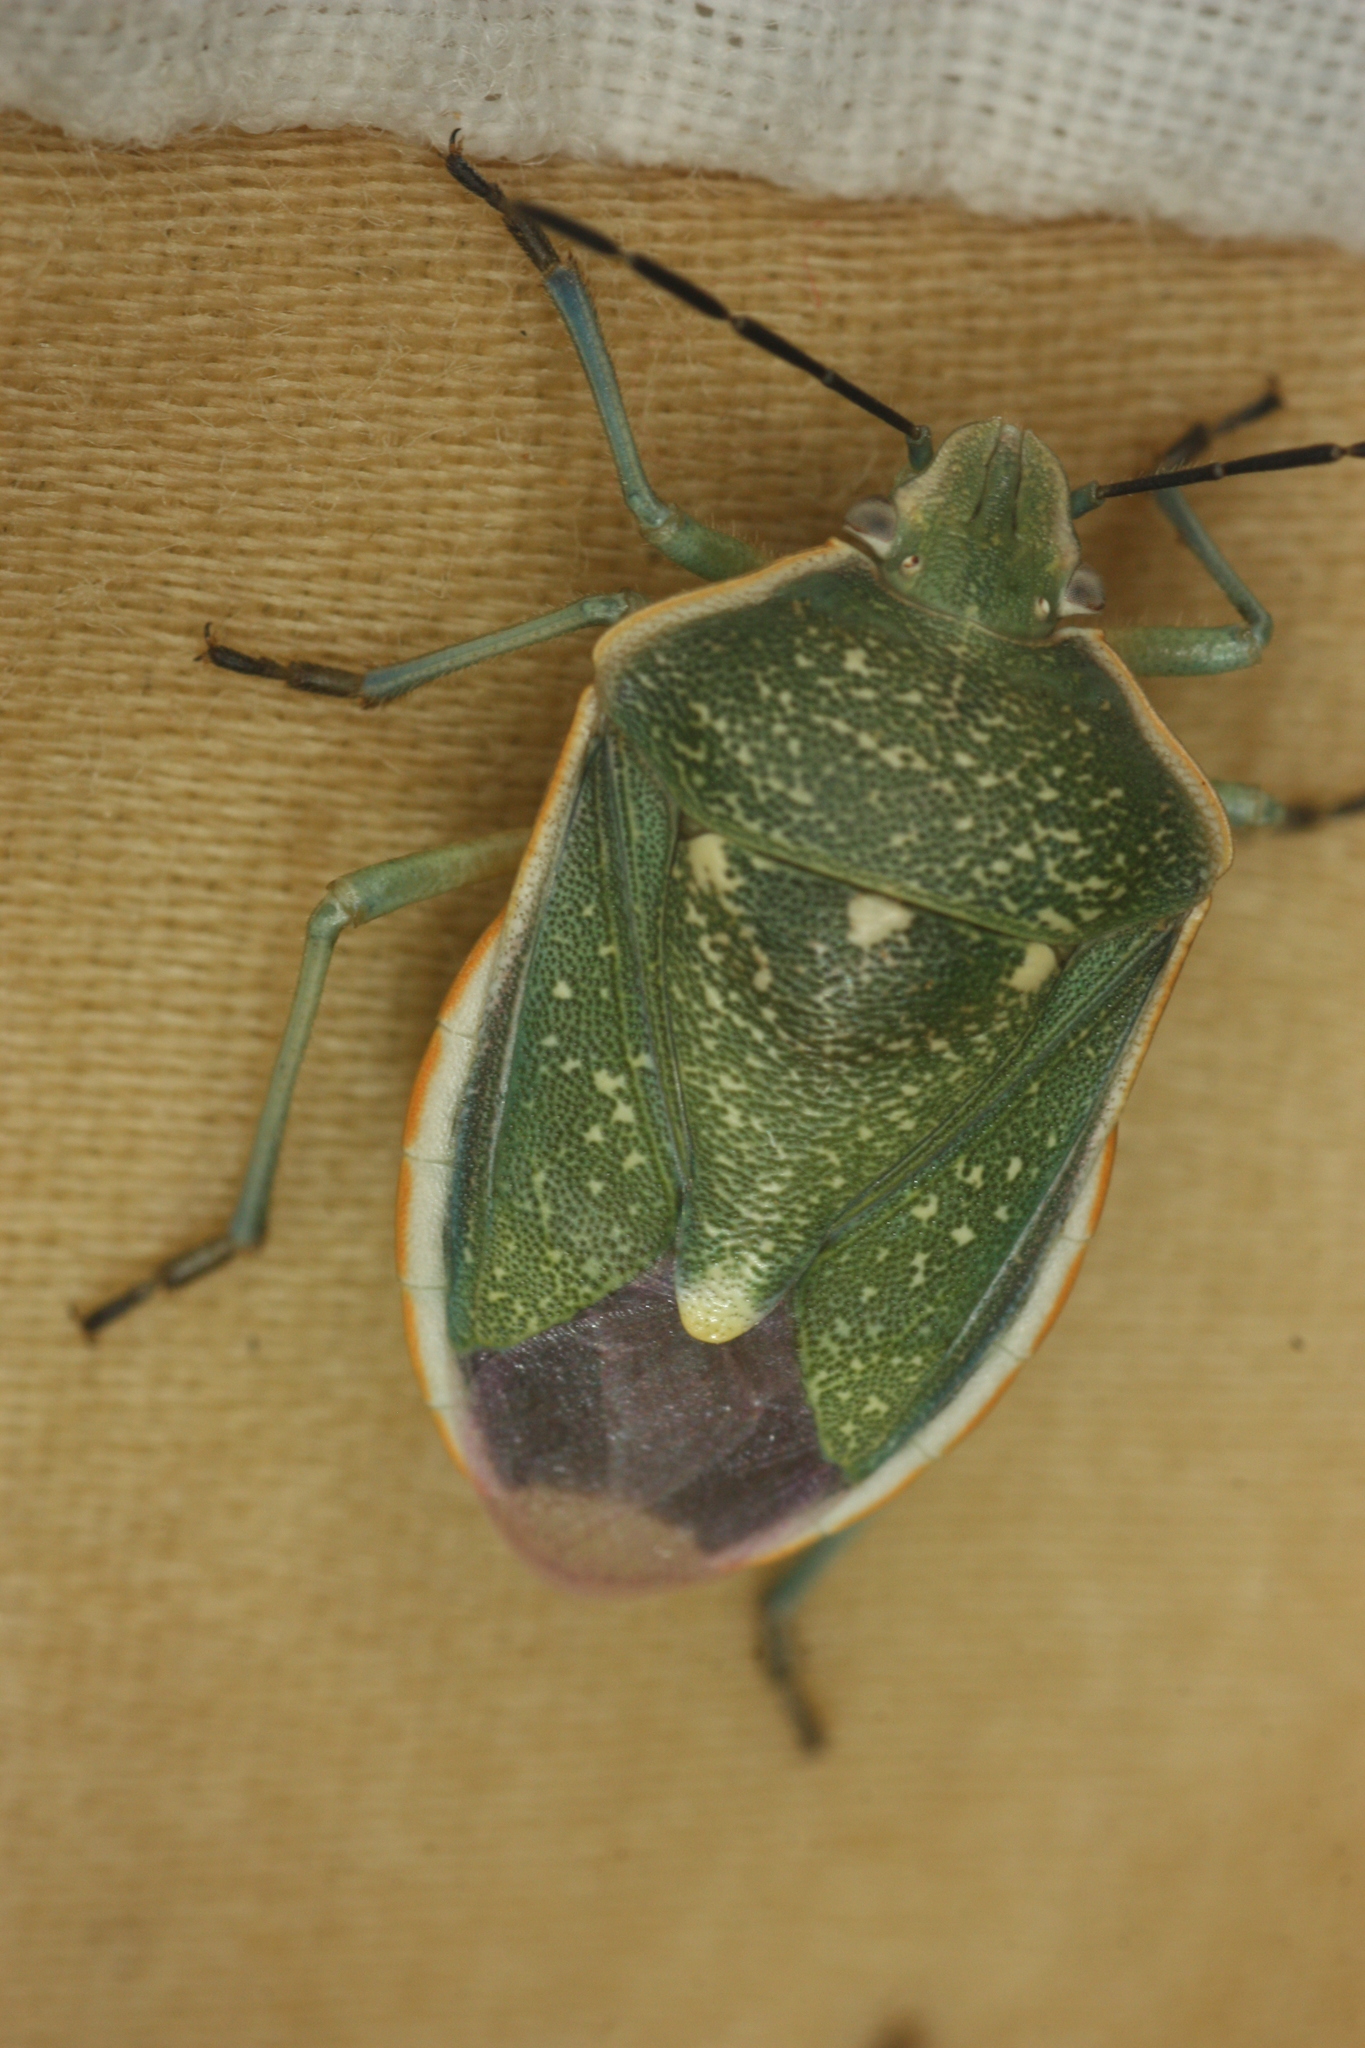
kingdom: Animalia
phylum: Arthropoda
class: Insecta
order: Hemiptera
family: Pentatomidae
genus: Chlorochroa
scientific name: Chlorochroa sayi
